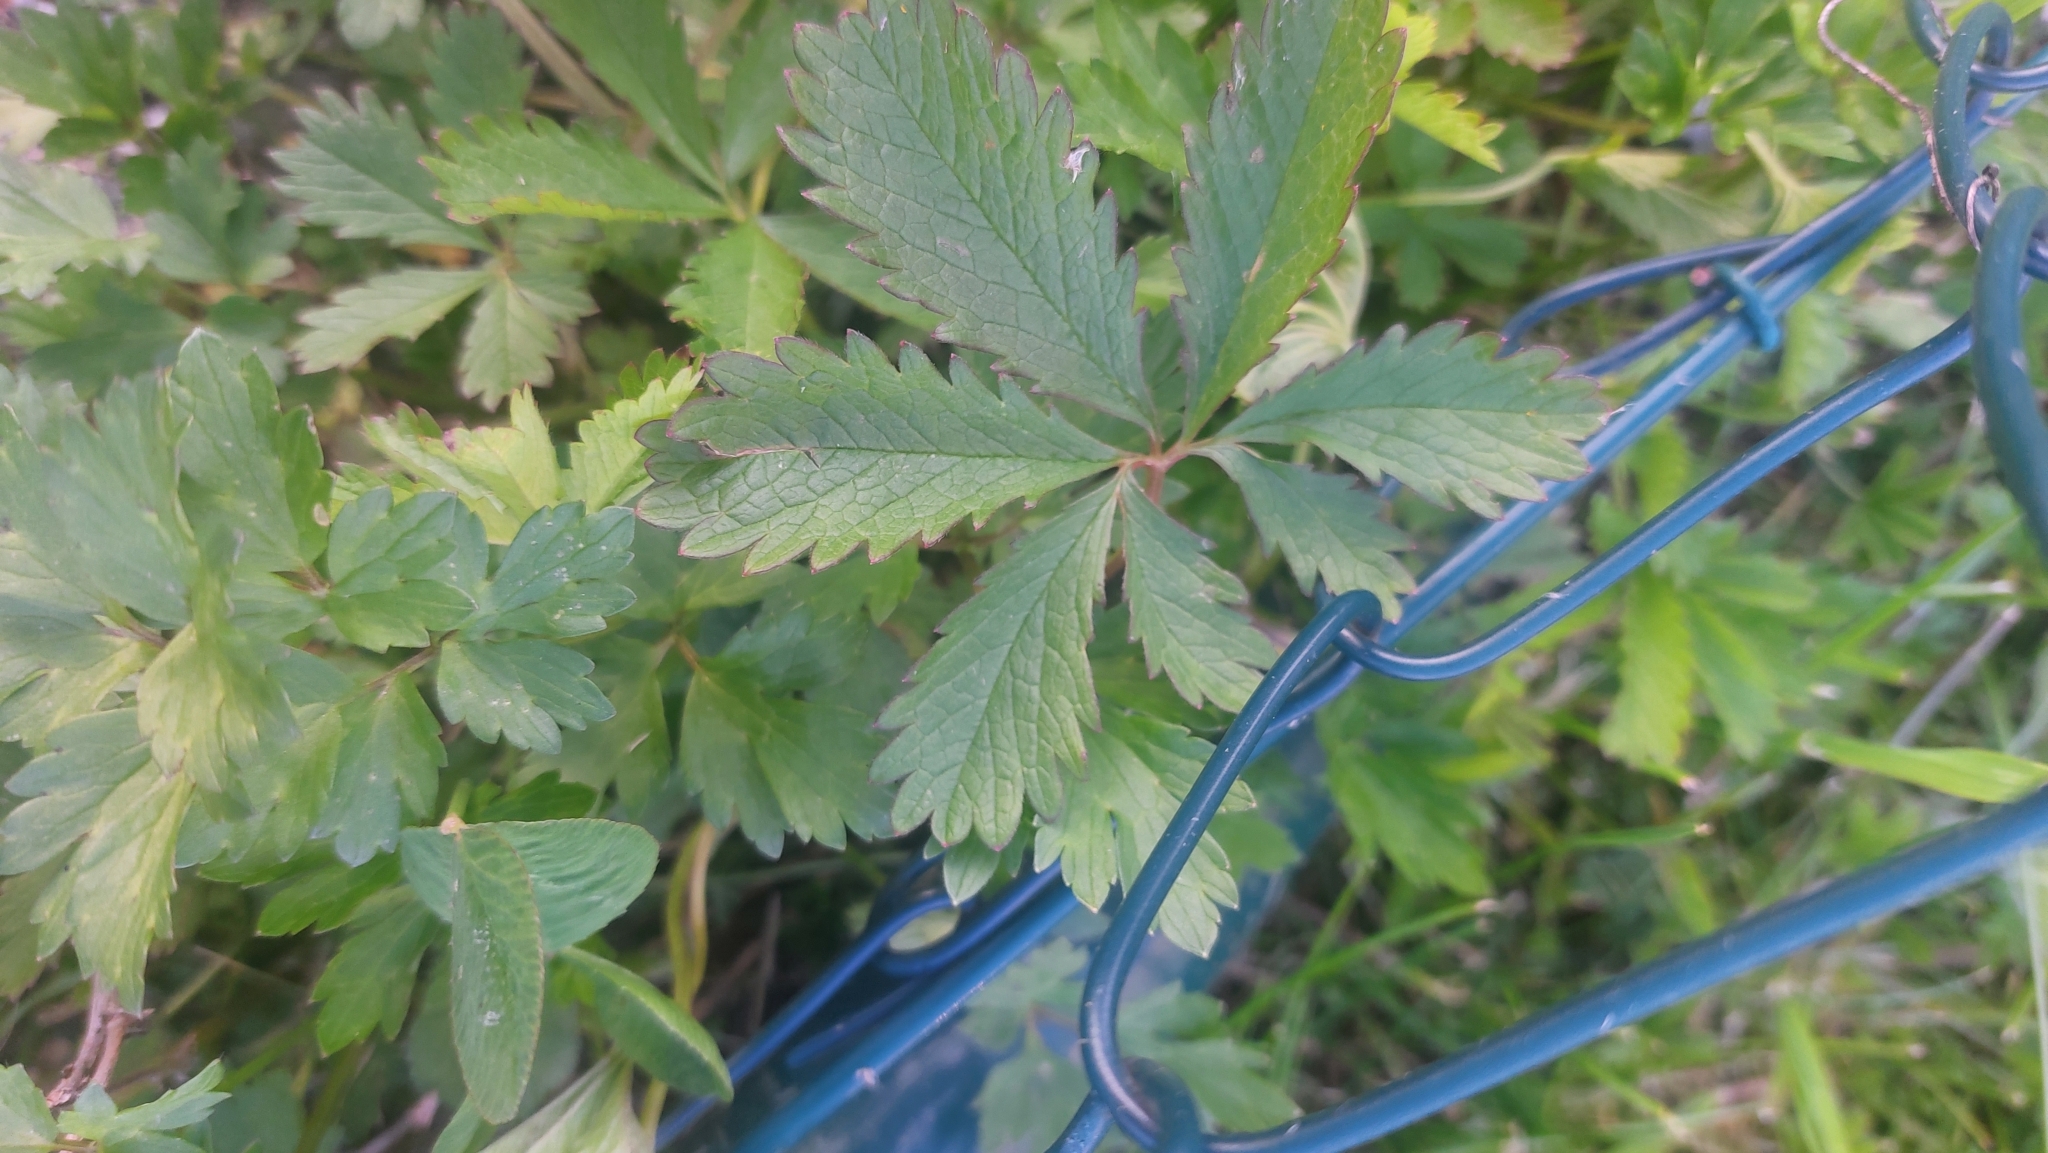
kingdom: Plantae
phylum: Tracheophyta
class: Magnoliopsida
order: Rosales
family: Rosaceae
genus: Potentilla
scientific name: Potentilla reptans
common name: Creeping cinquefoil
